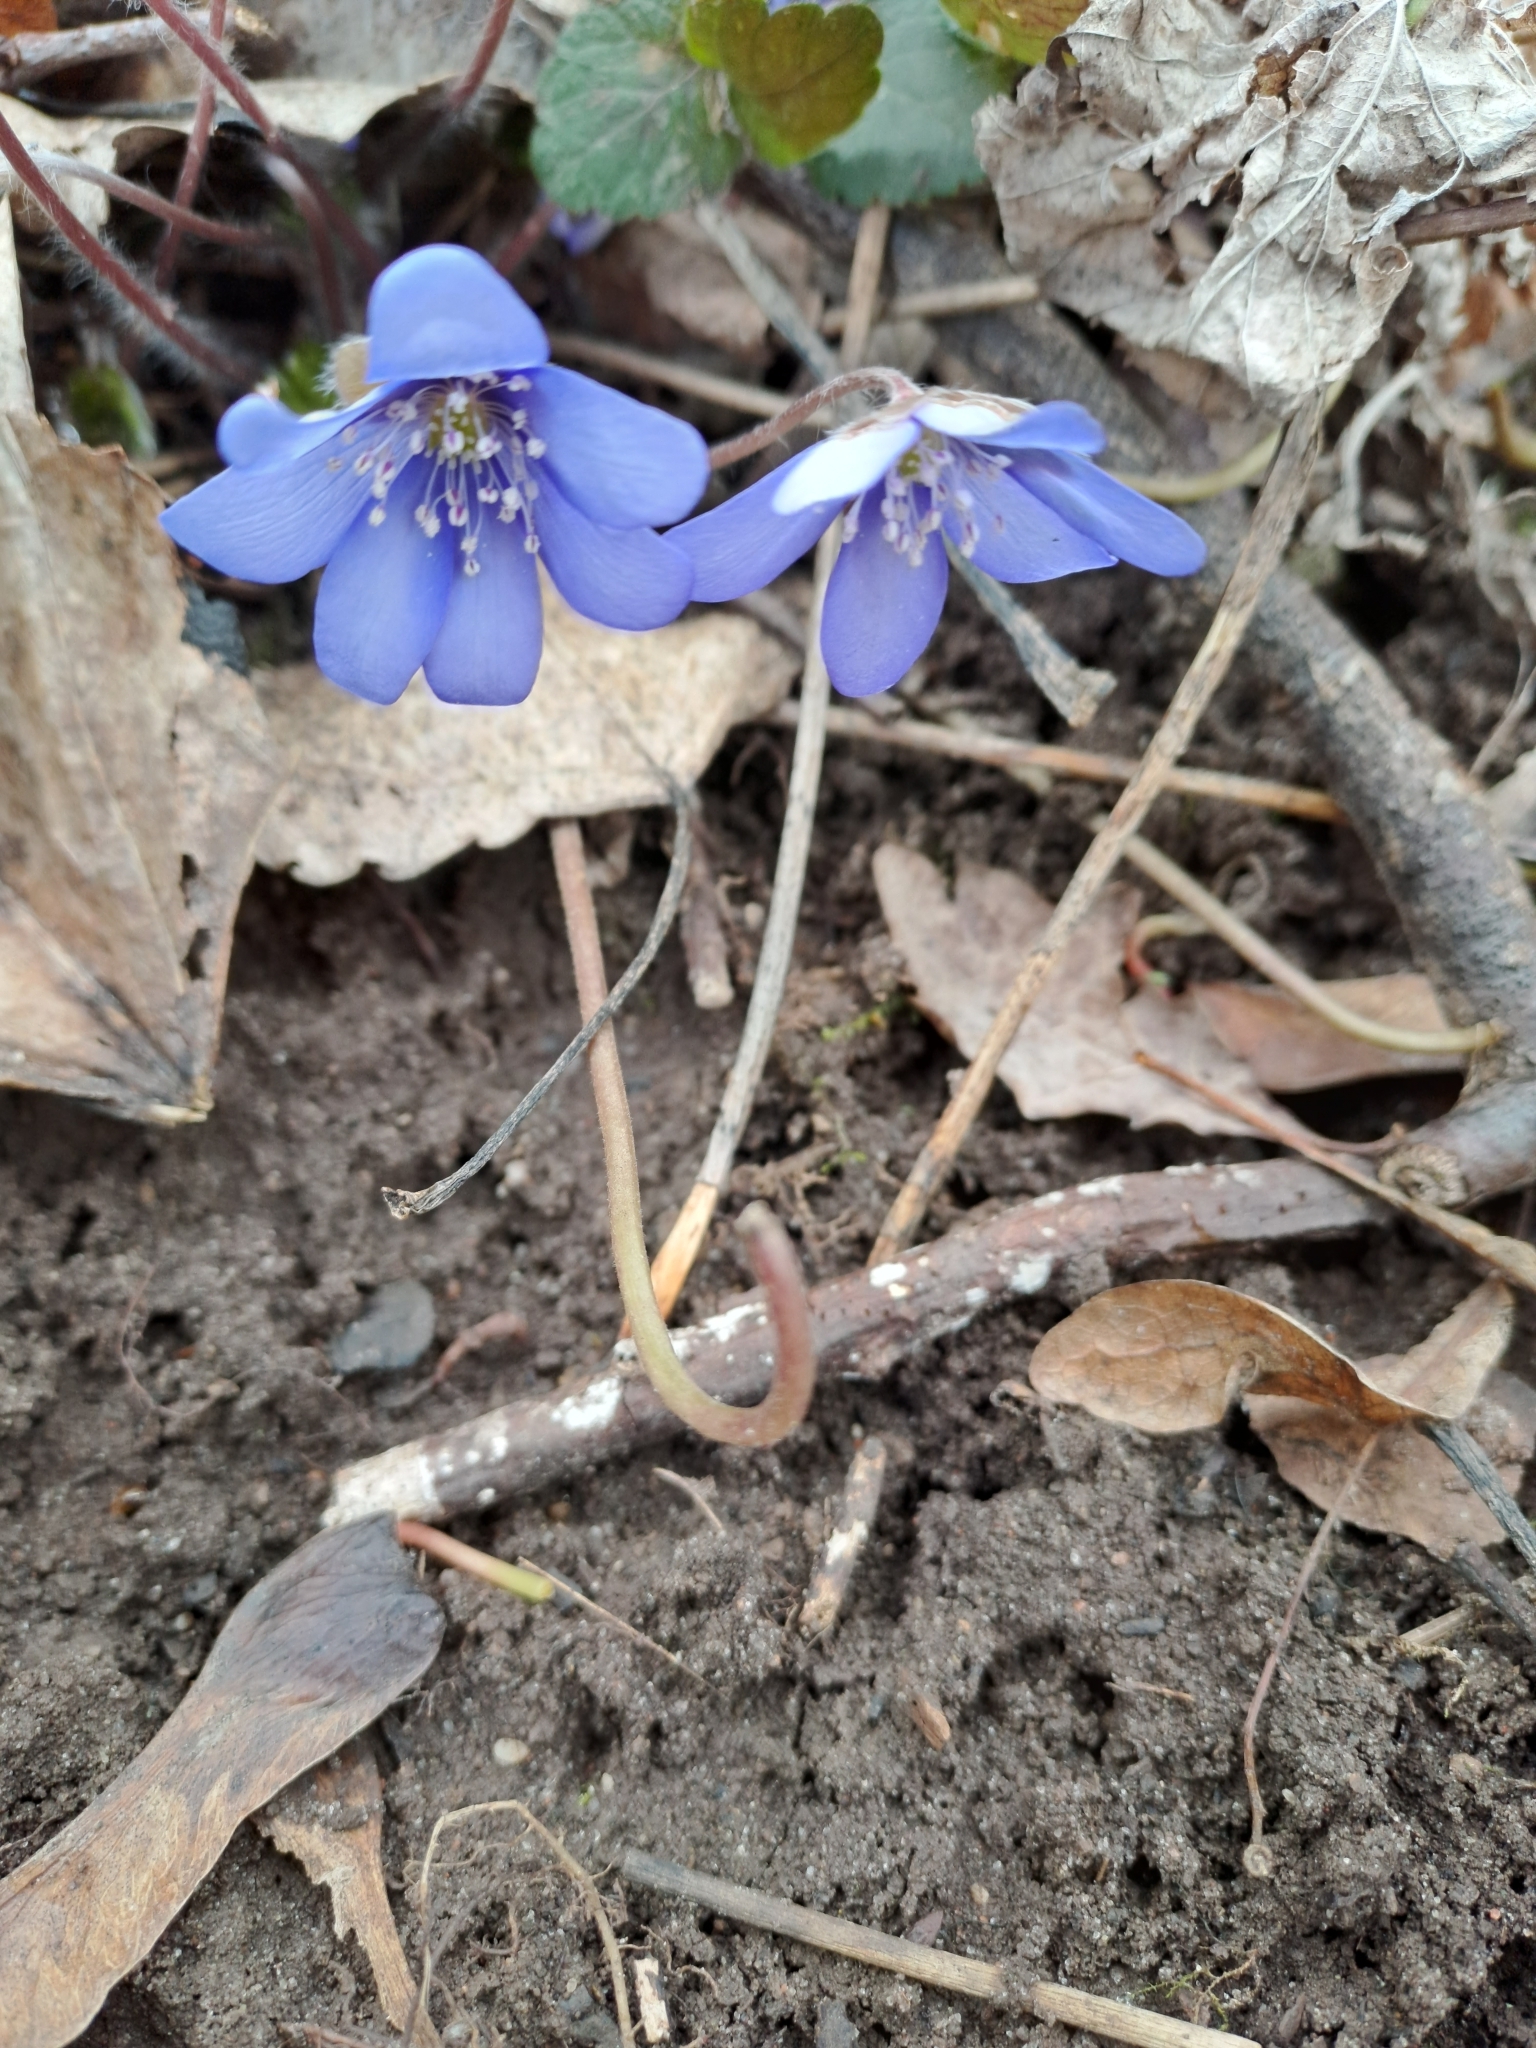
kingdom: Plantae
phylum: Tracheophyta
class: Magnoliopsida
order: Ranunculales
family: Ranunculaceae
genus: Hepatica
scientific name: Hepatica nobilis
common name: Liverleaf
